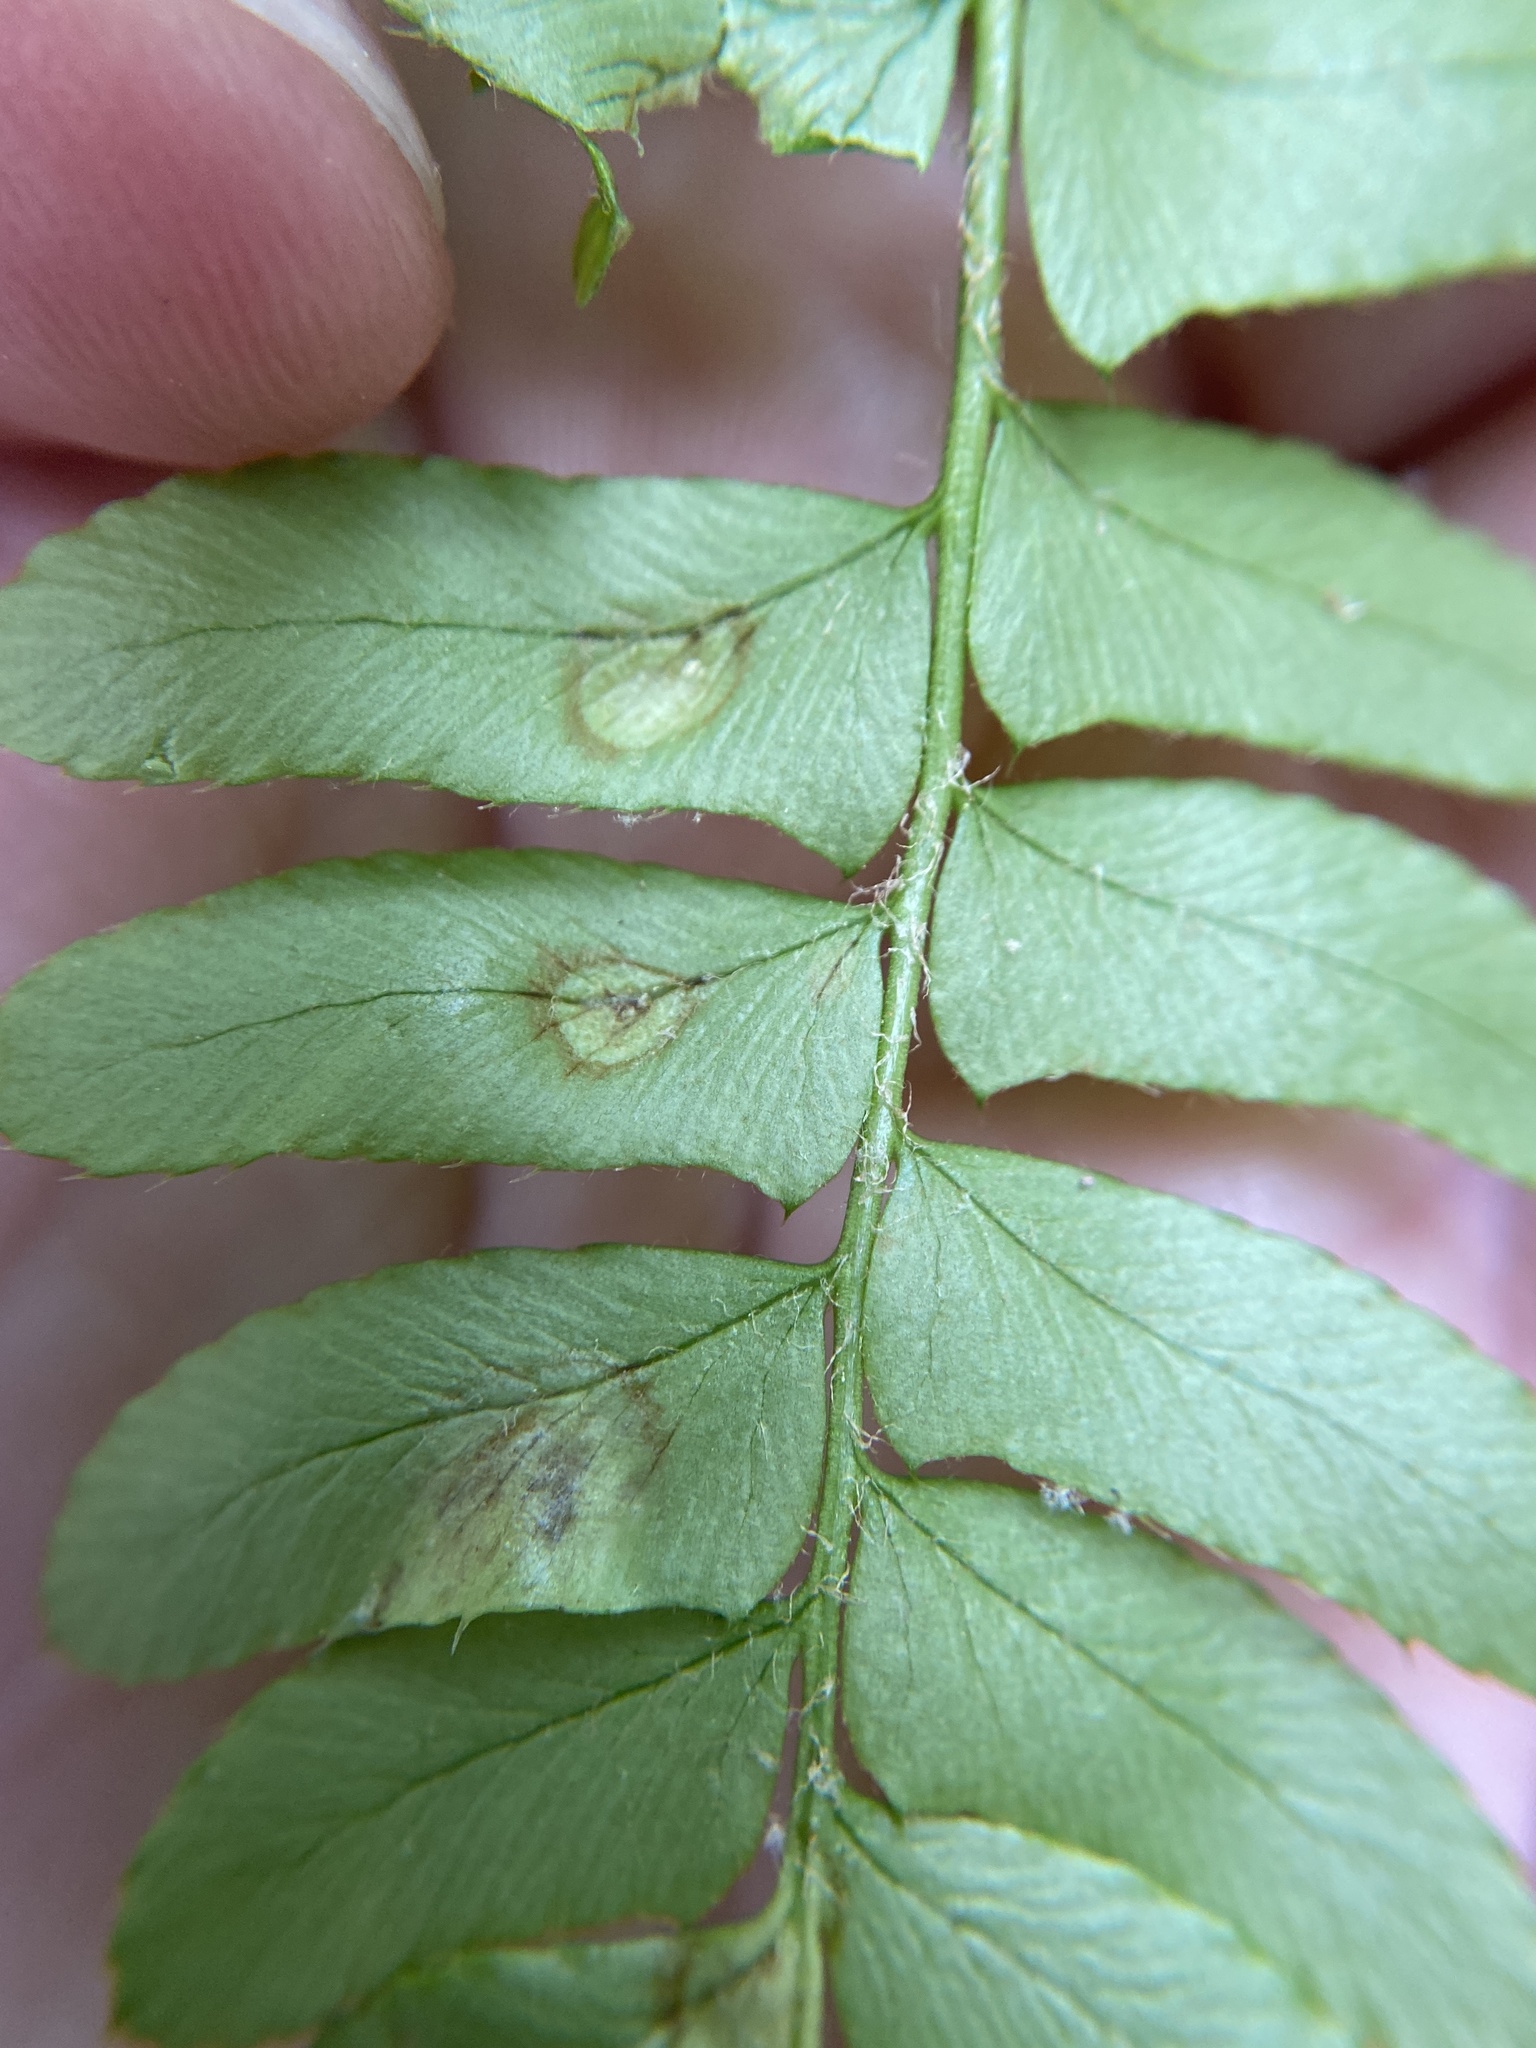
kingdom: Fungi
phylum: Ascomycota
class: Taphrinomycetes
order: Taphrinales
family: Taphrinaceae
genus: Taphrina
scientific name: Taphrina polystichi
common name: Christmas fern leaf curl
